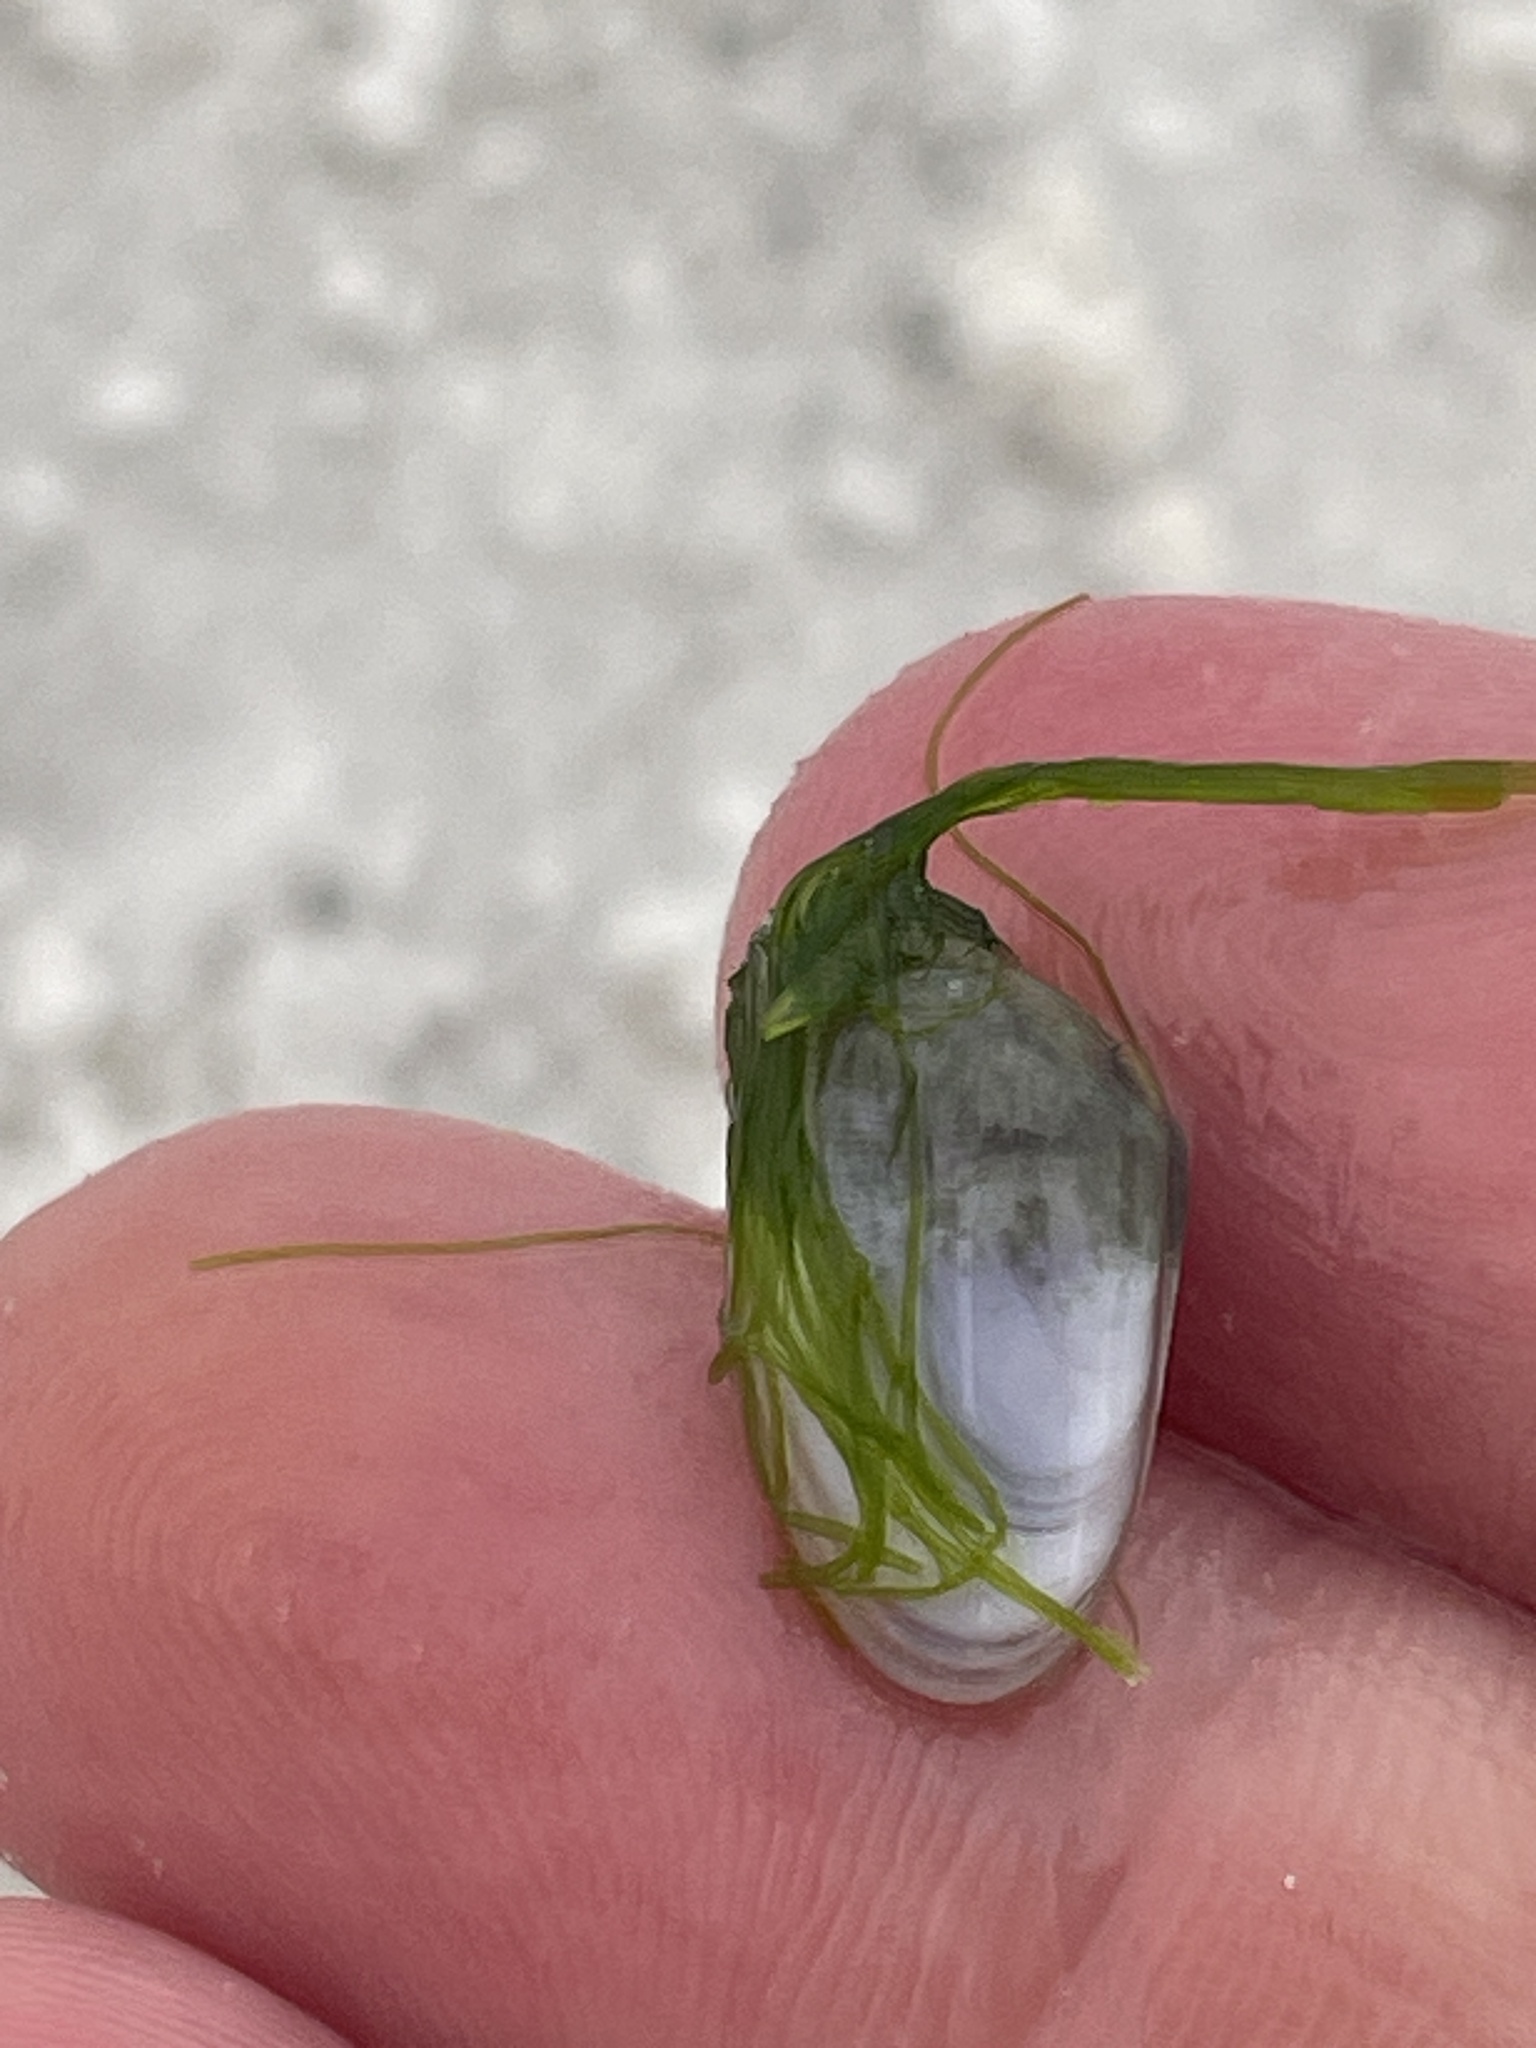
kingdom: Animalia
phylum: Mollusca
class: Bivalvia
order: Cardiida
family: Donacidae
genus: Donax
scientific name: Donax variabilis
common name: Butterfly shell
